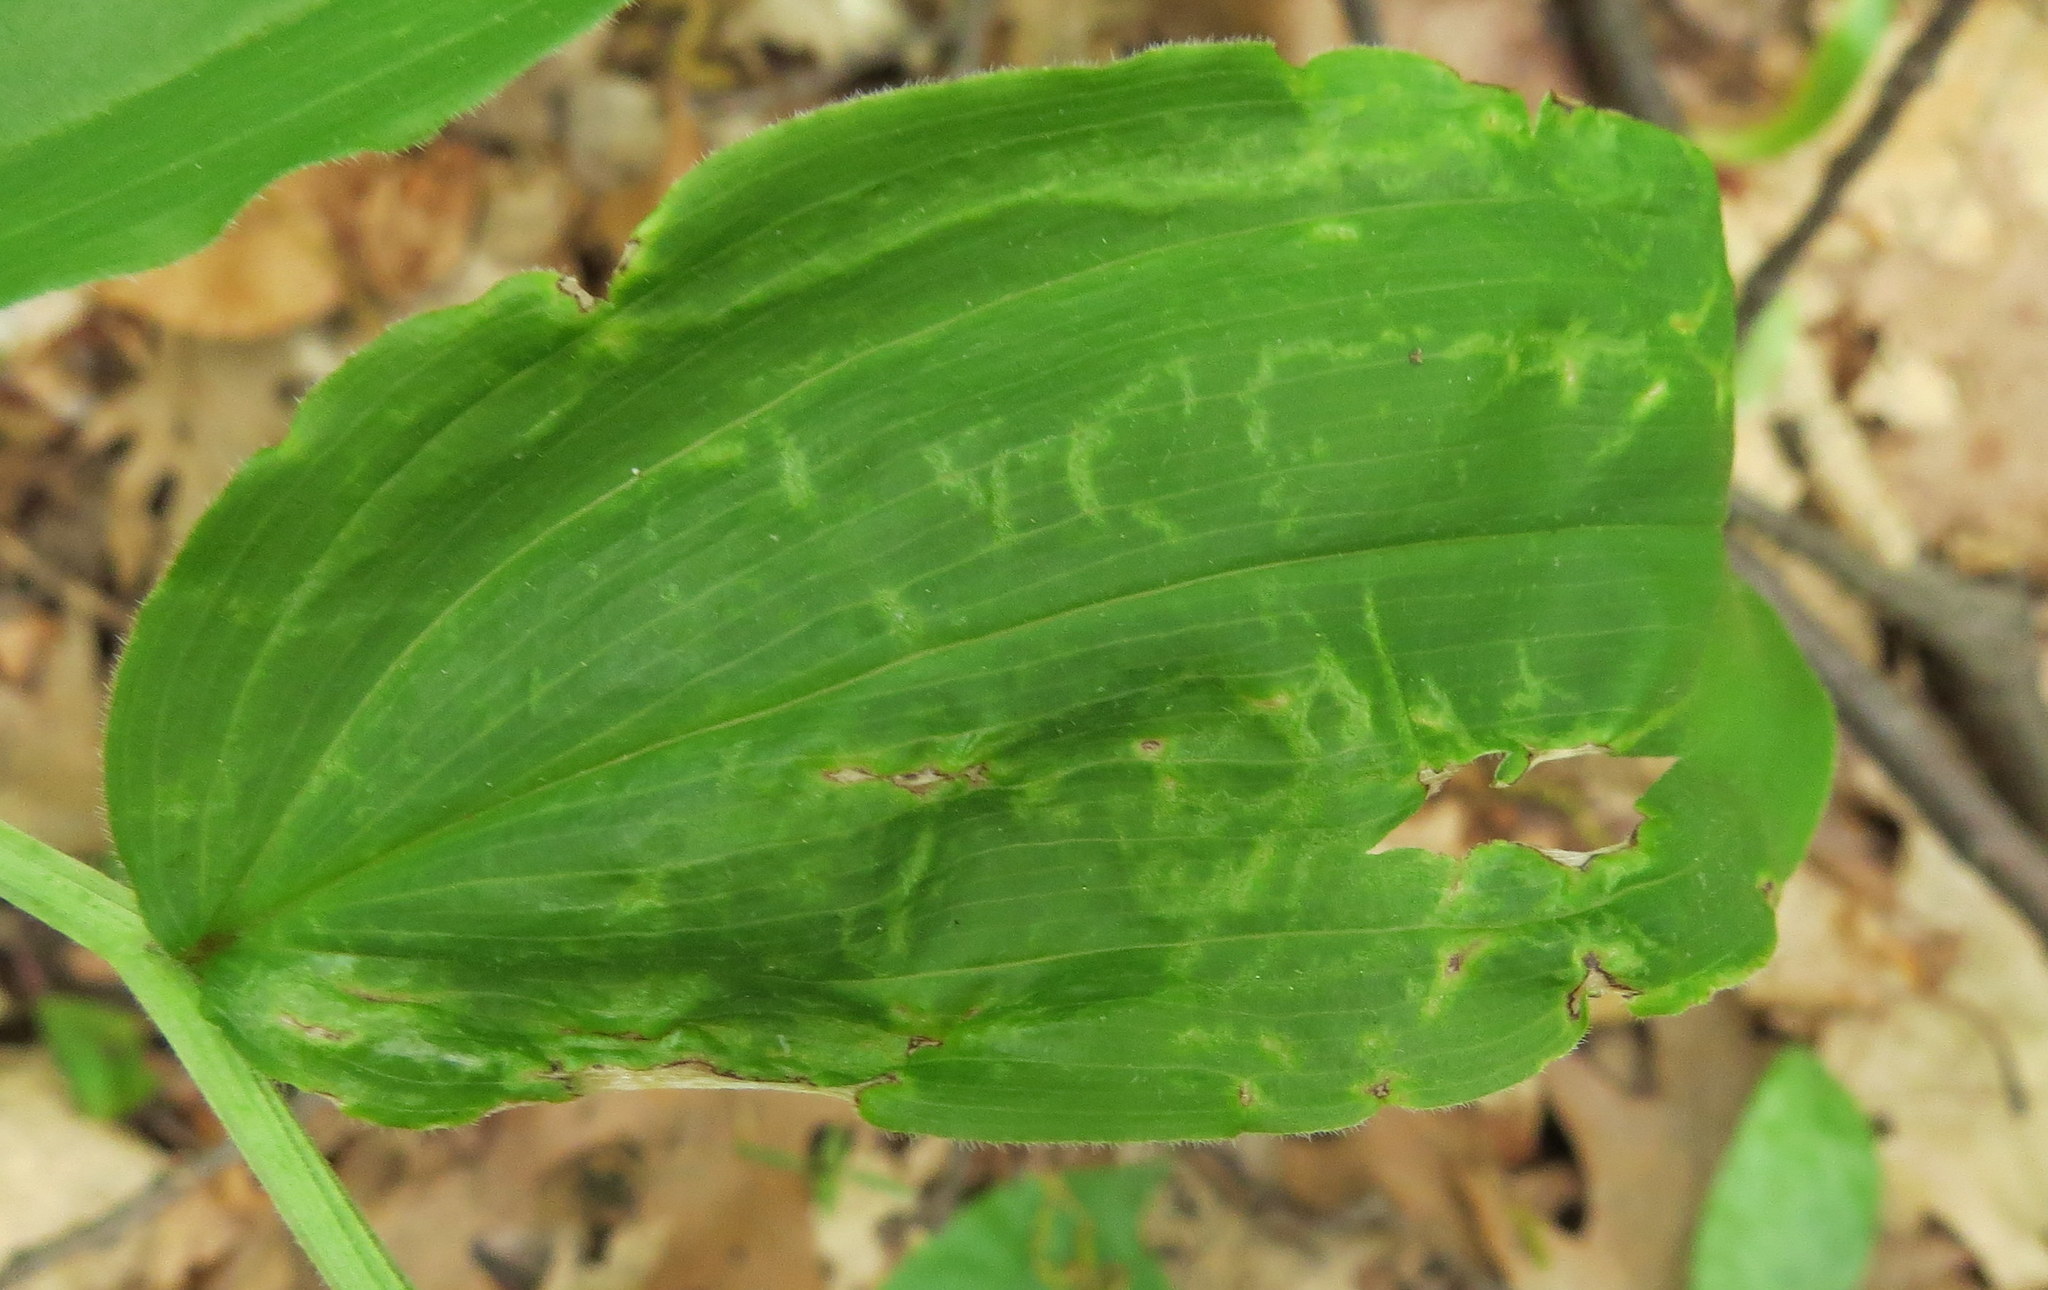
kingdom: Plantae
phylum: Tracheophyta
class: Liliopsida
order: Asparagales
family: Asparagaceae
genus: Maianthemum
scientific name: Maianthemum racemosum
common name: False spikenard
